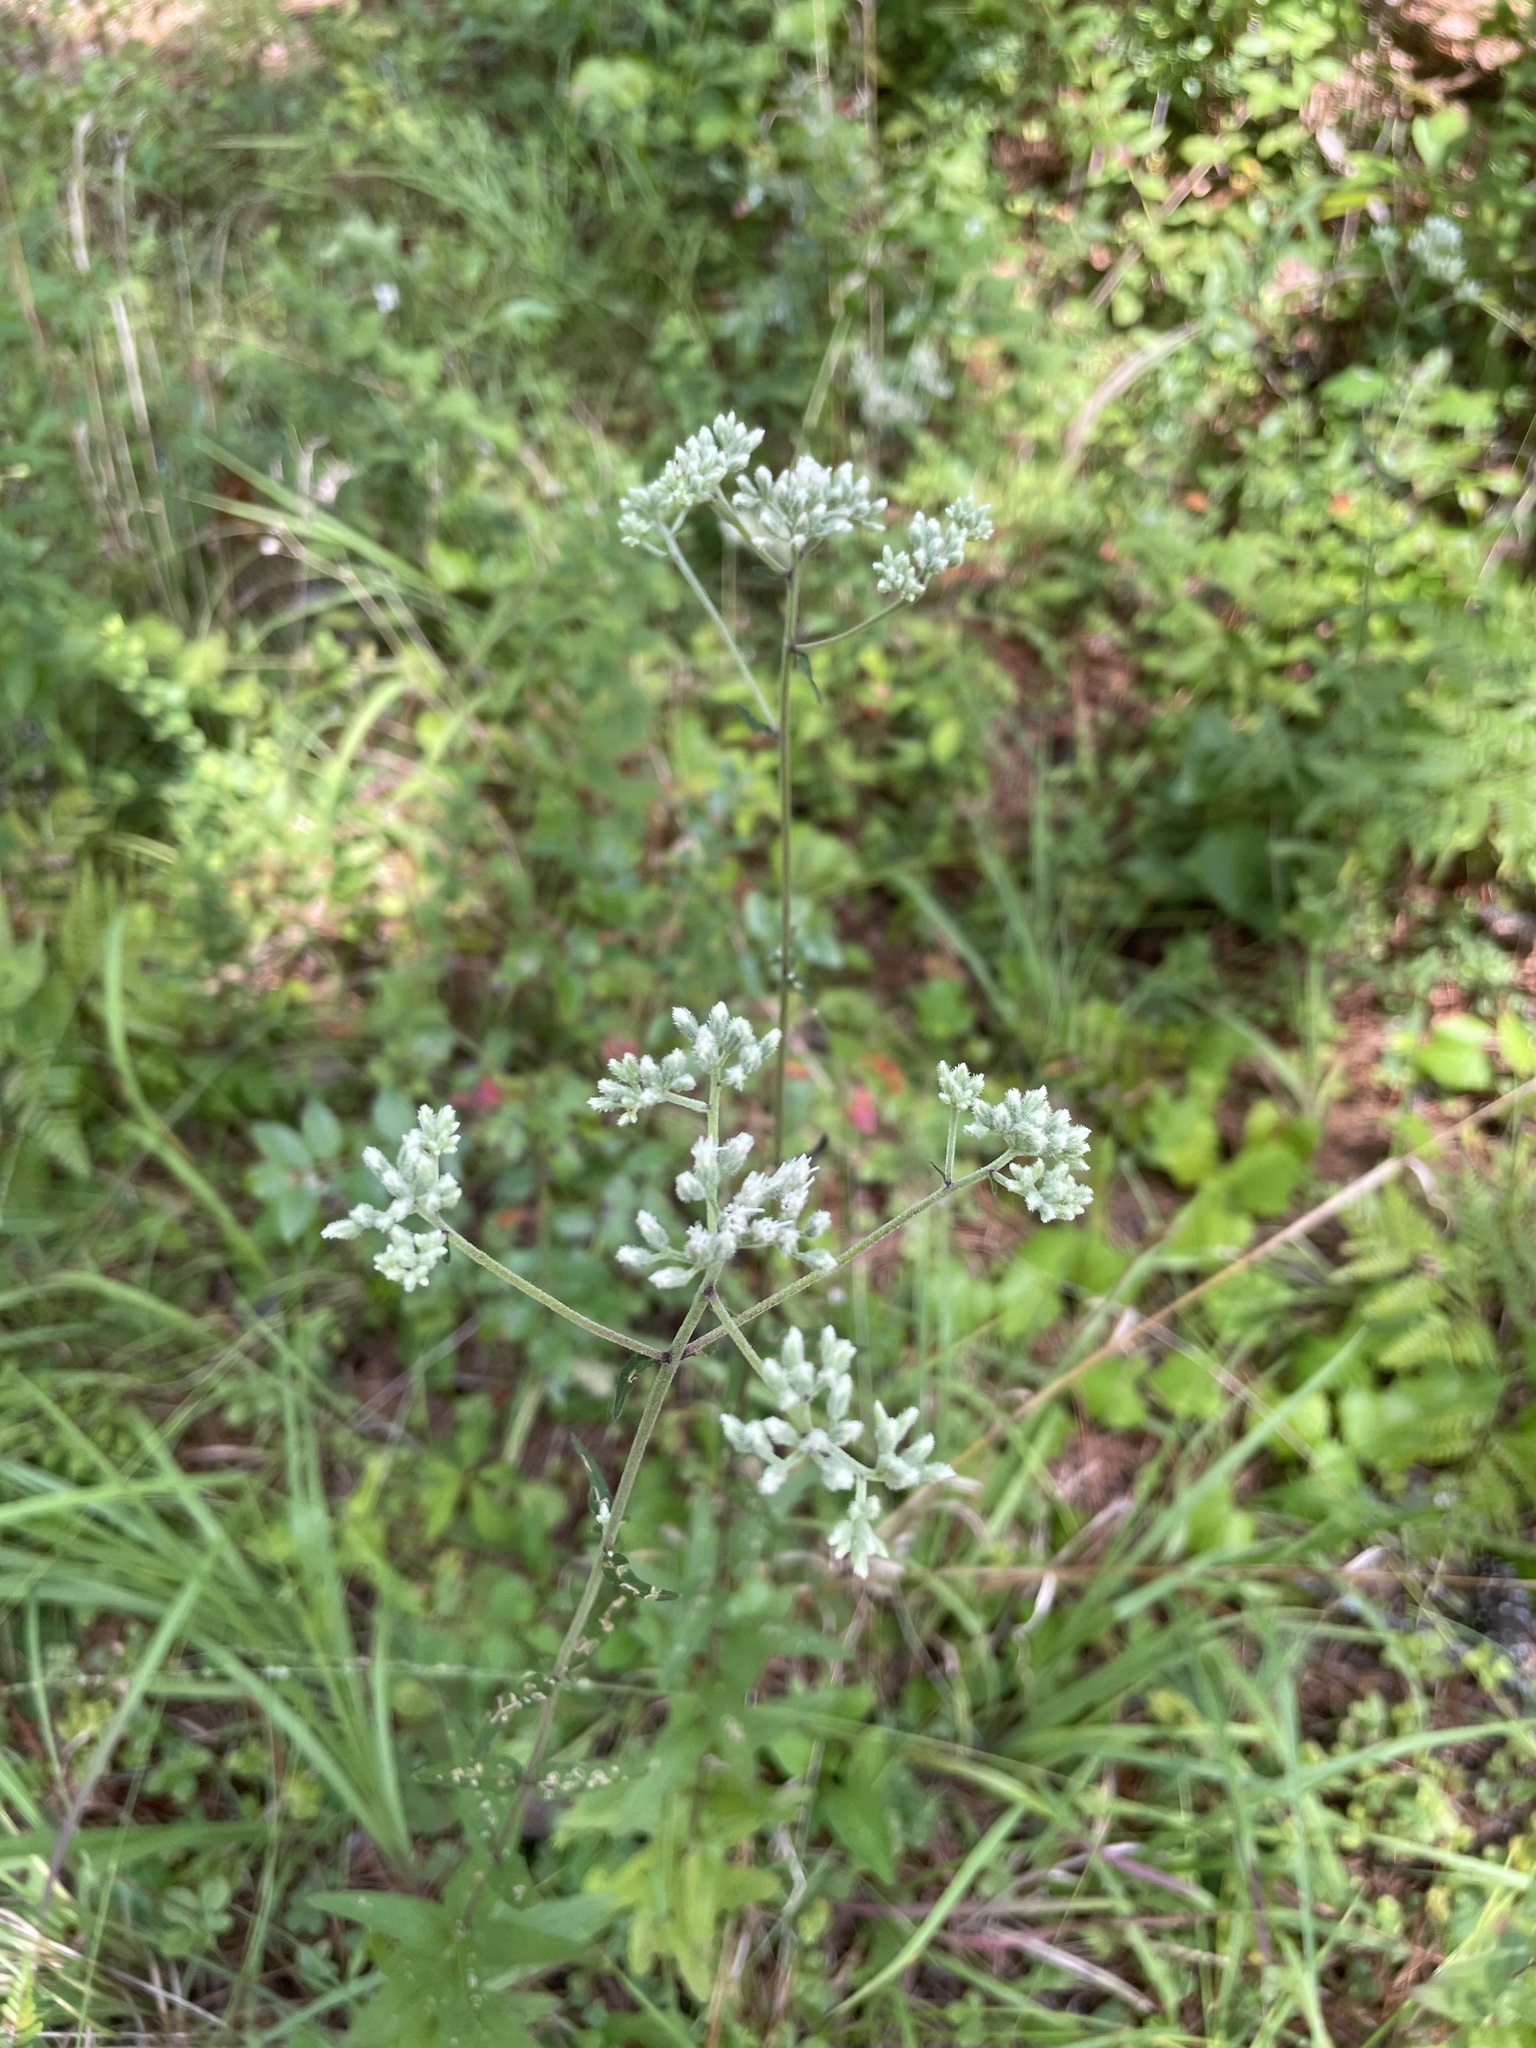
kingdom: Plantae
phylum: Tracheophyta
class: Magnoliopsida
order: Asterales
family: Asteraceae
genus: Eupatorium
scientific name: Eupatorium pilosum
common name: Rough boneset
